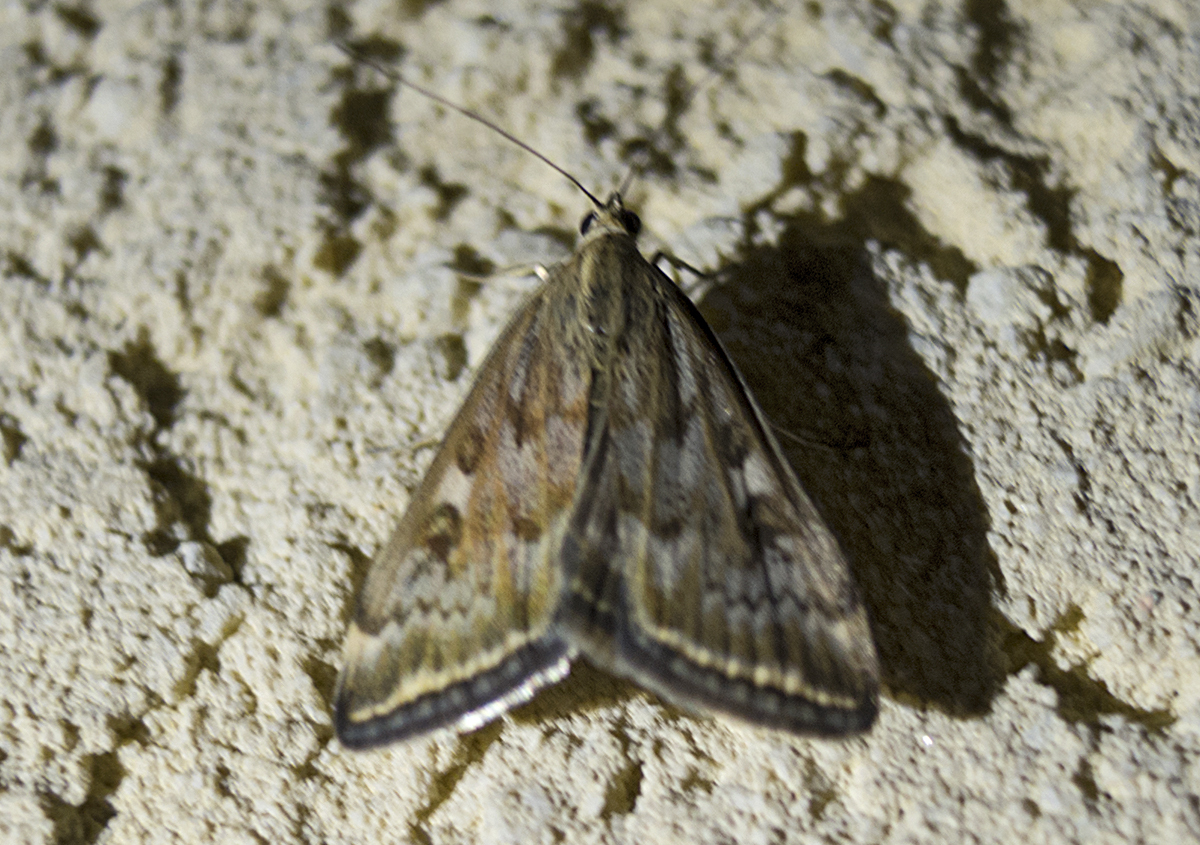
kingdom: Animalia
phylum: Arthropoda
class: Insecta
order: Lepidoptera
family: Crambidae
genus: Loxostege
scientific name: Loxostege sticticalis
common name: Crambid moth
